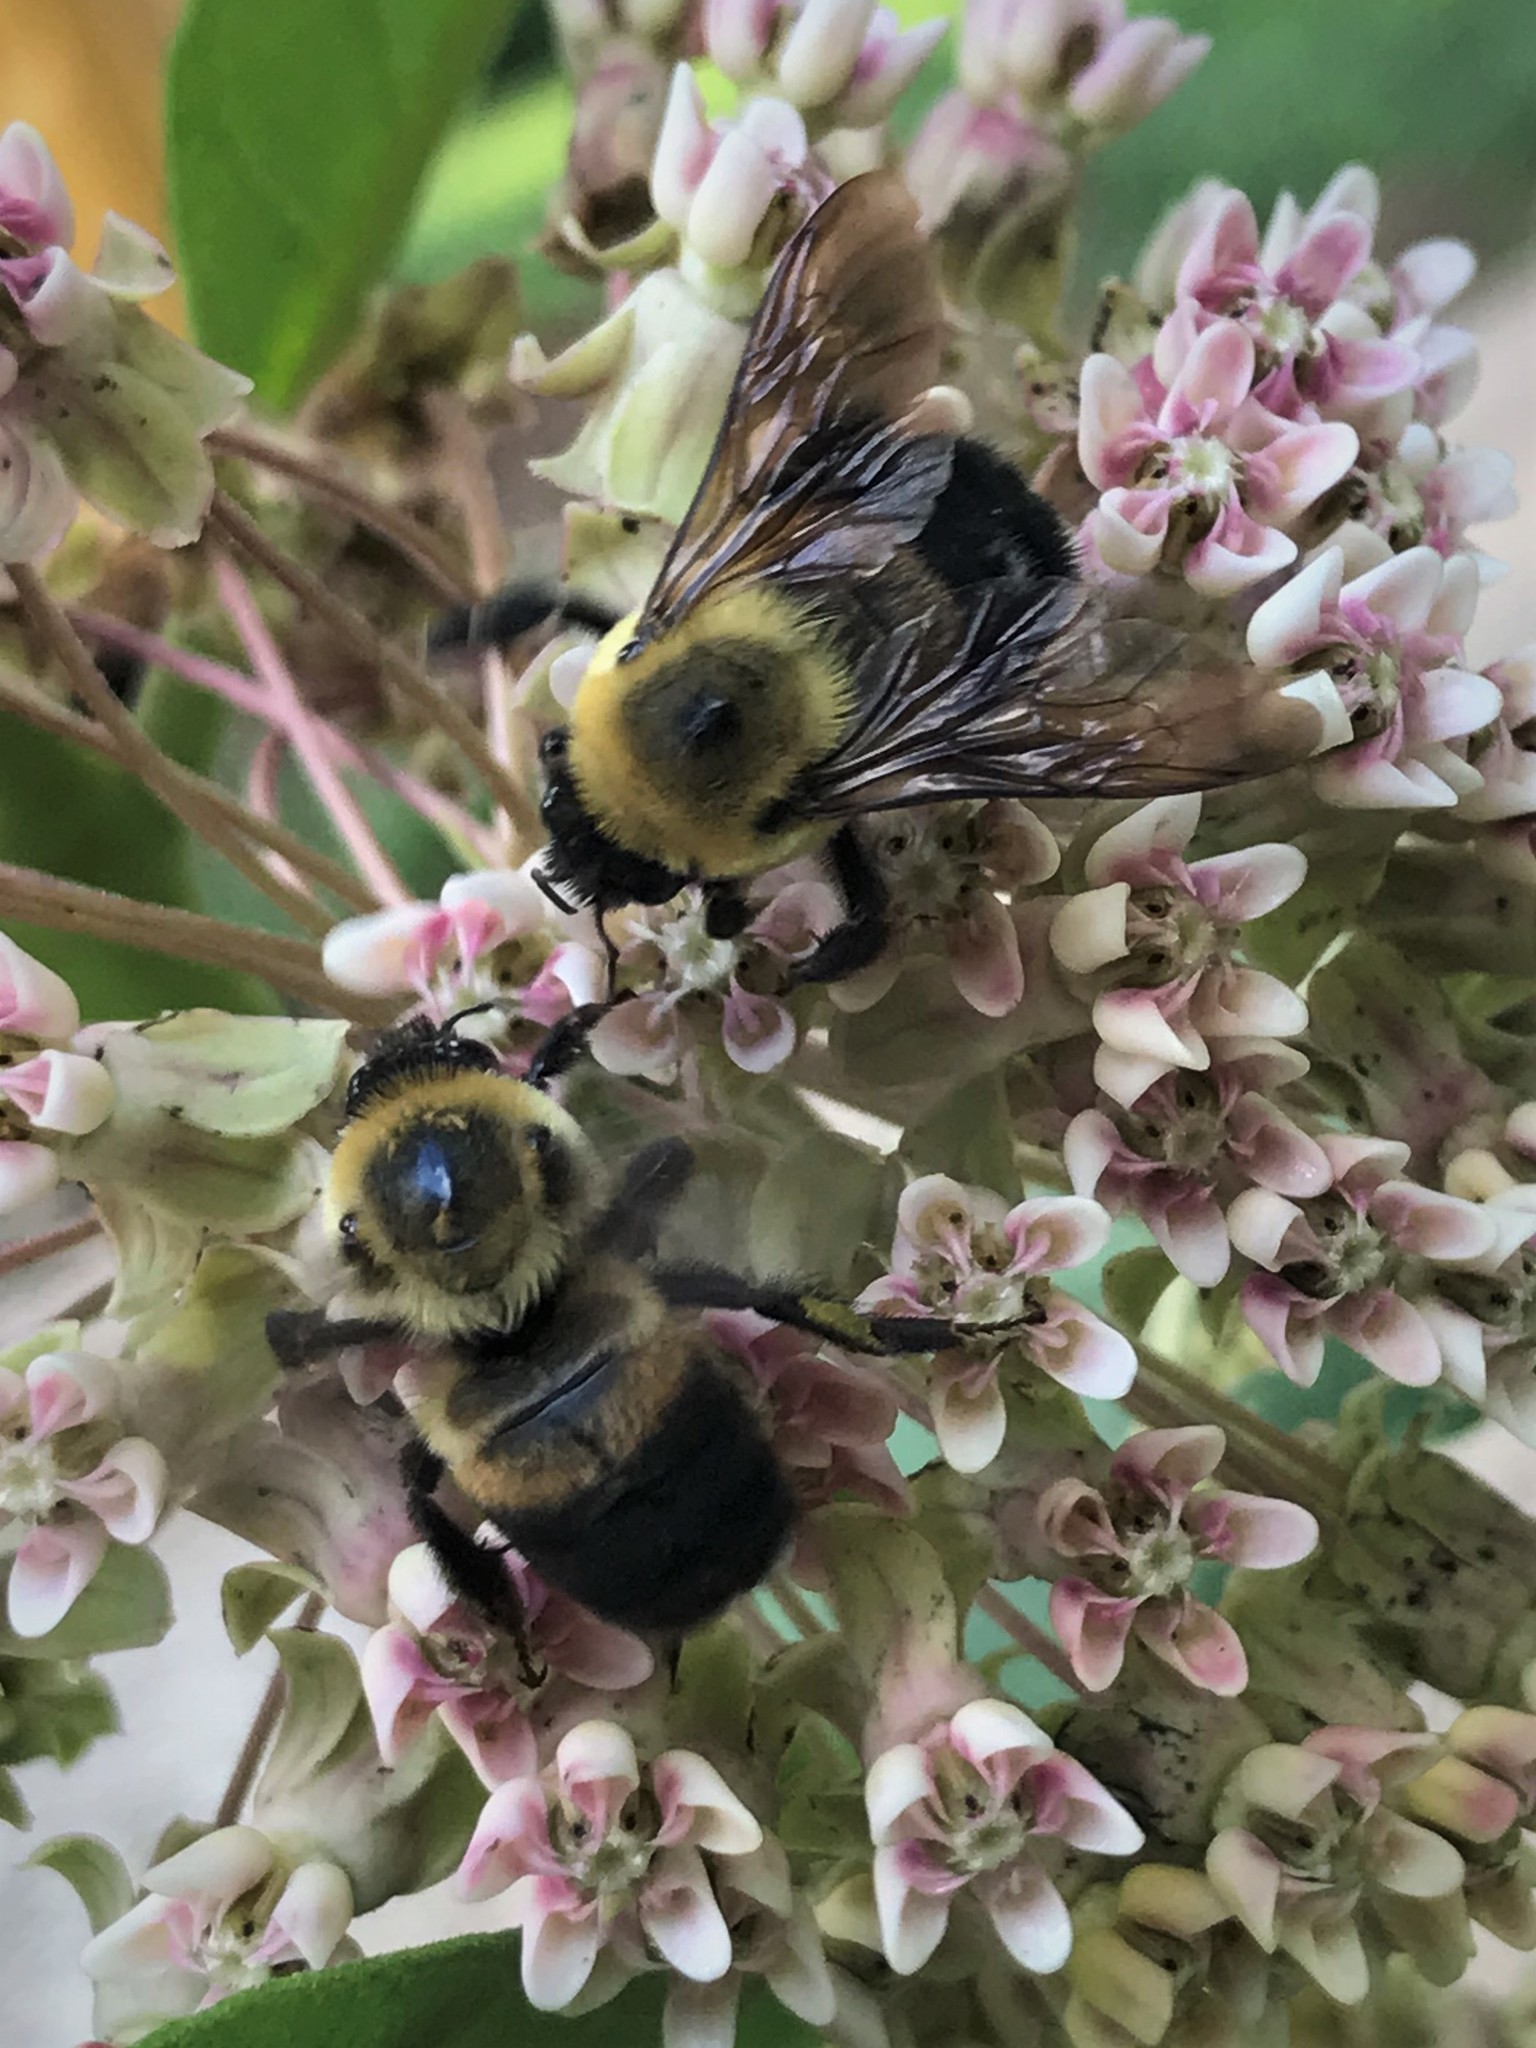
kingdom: Animalia
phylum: Arthropoda
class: Insecta
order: Hymenoptera
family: Apidae
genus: Bombus
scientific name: Bombus griseocollis
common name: Brown-belted bumble bee
